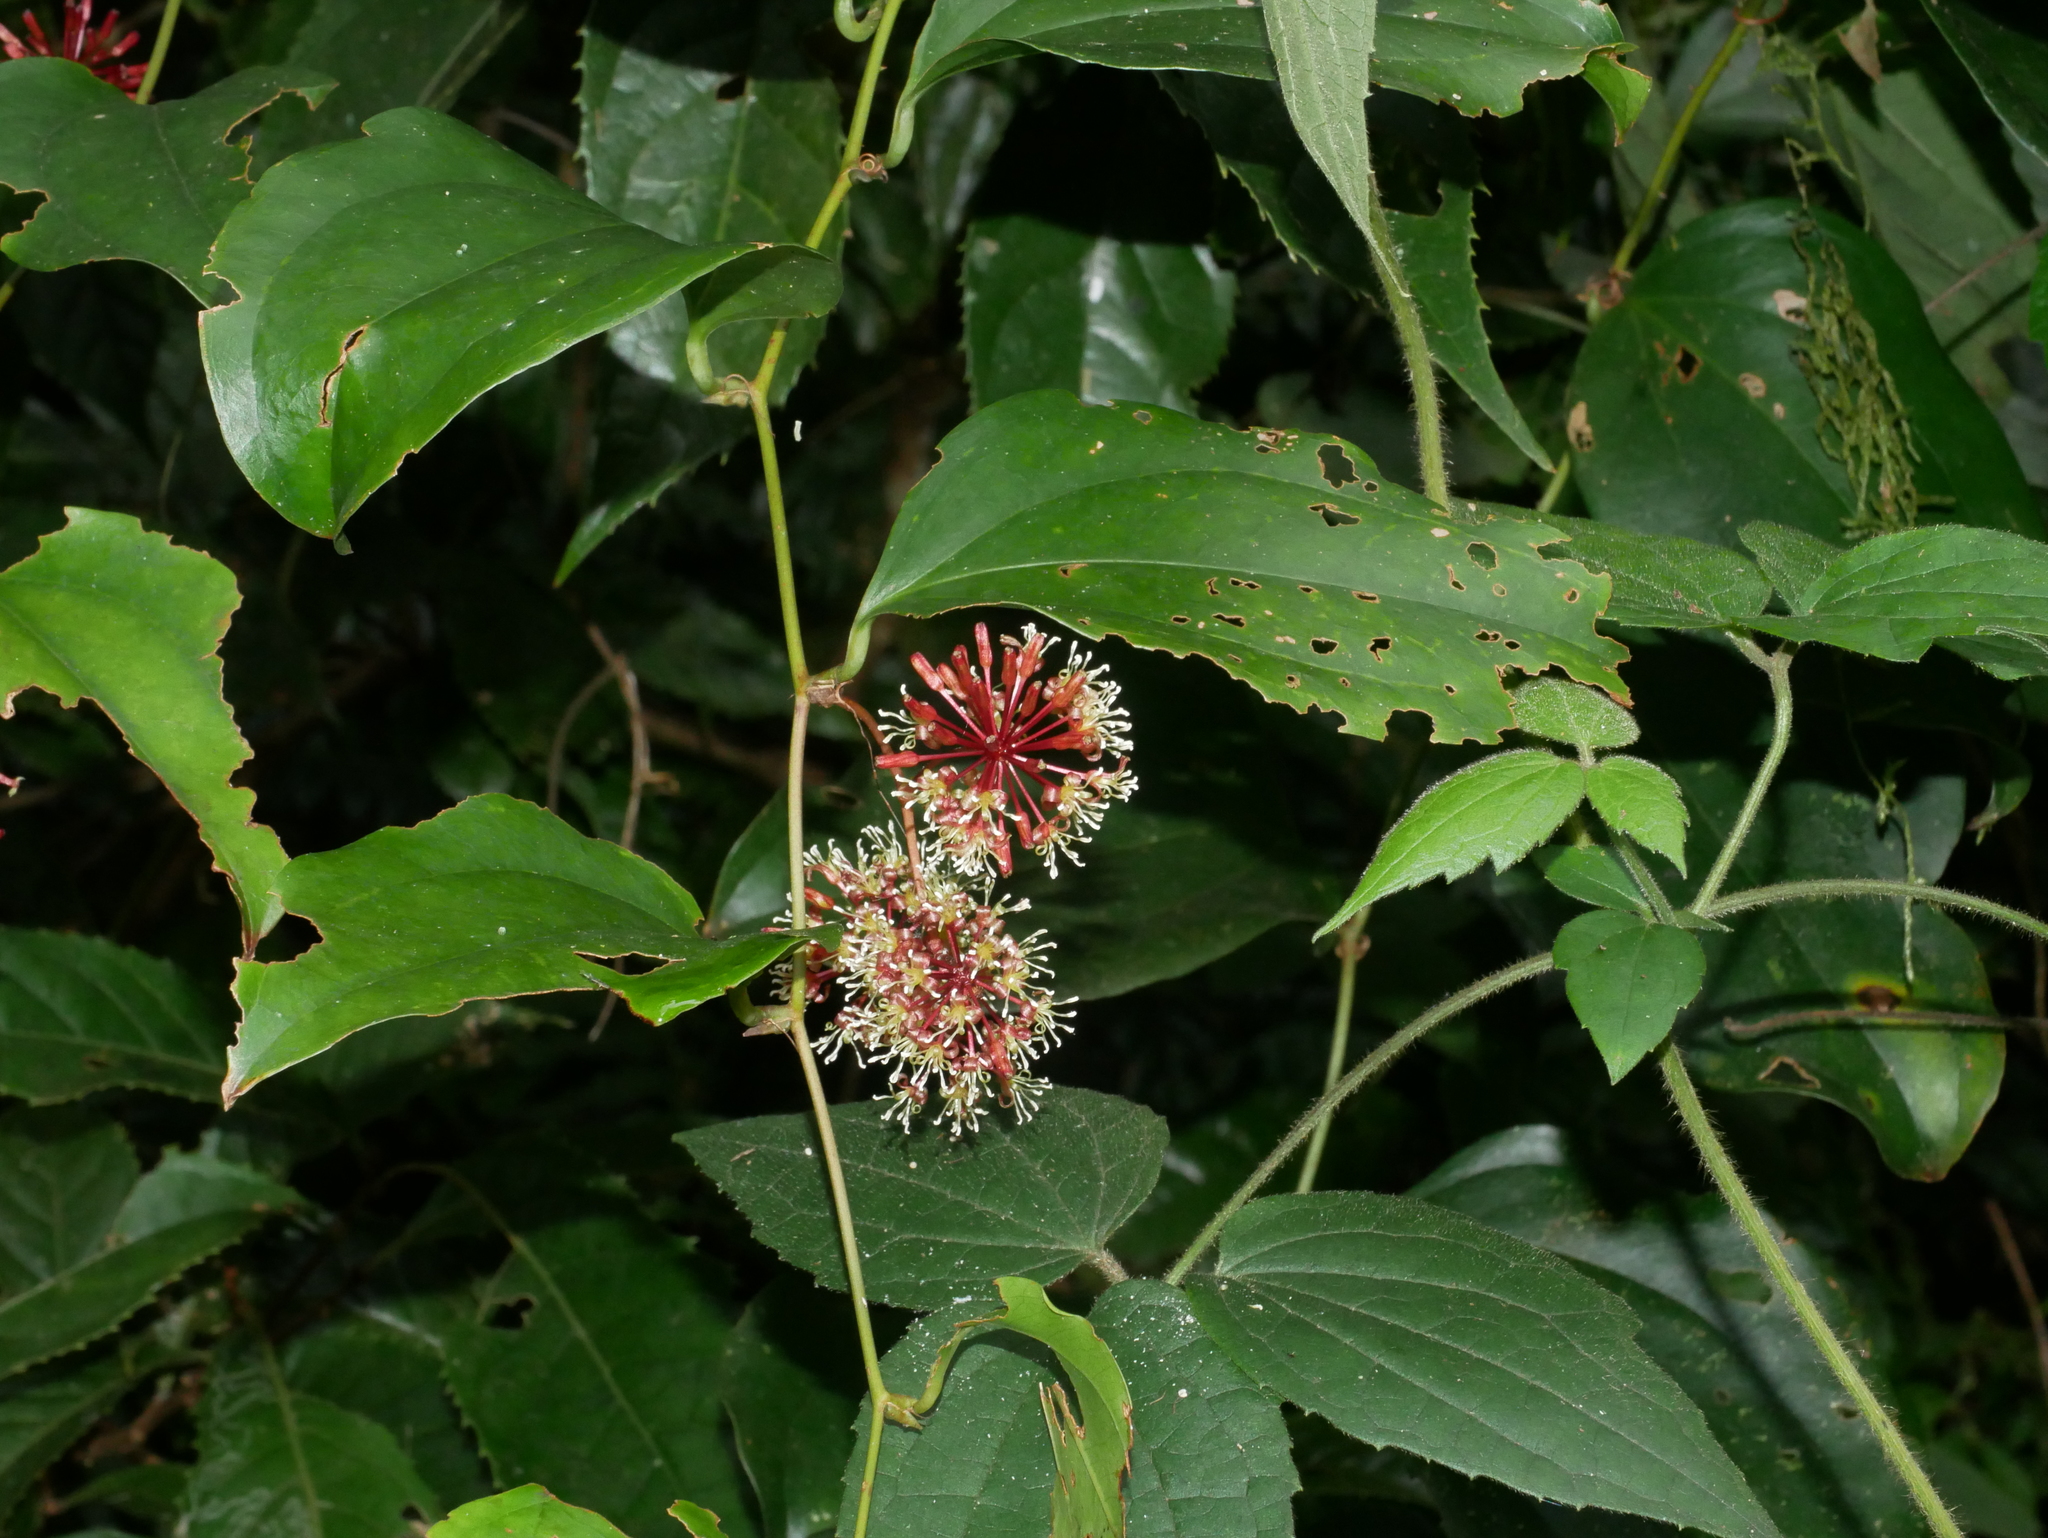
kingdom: Plantae
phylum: Tracheophyta
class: Liliopsida
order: Liliales
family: Smilacaceae
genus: Smilax
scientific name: Smilax bracteata
